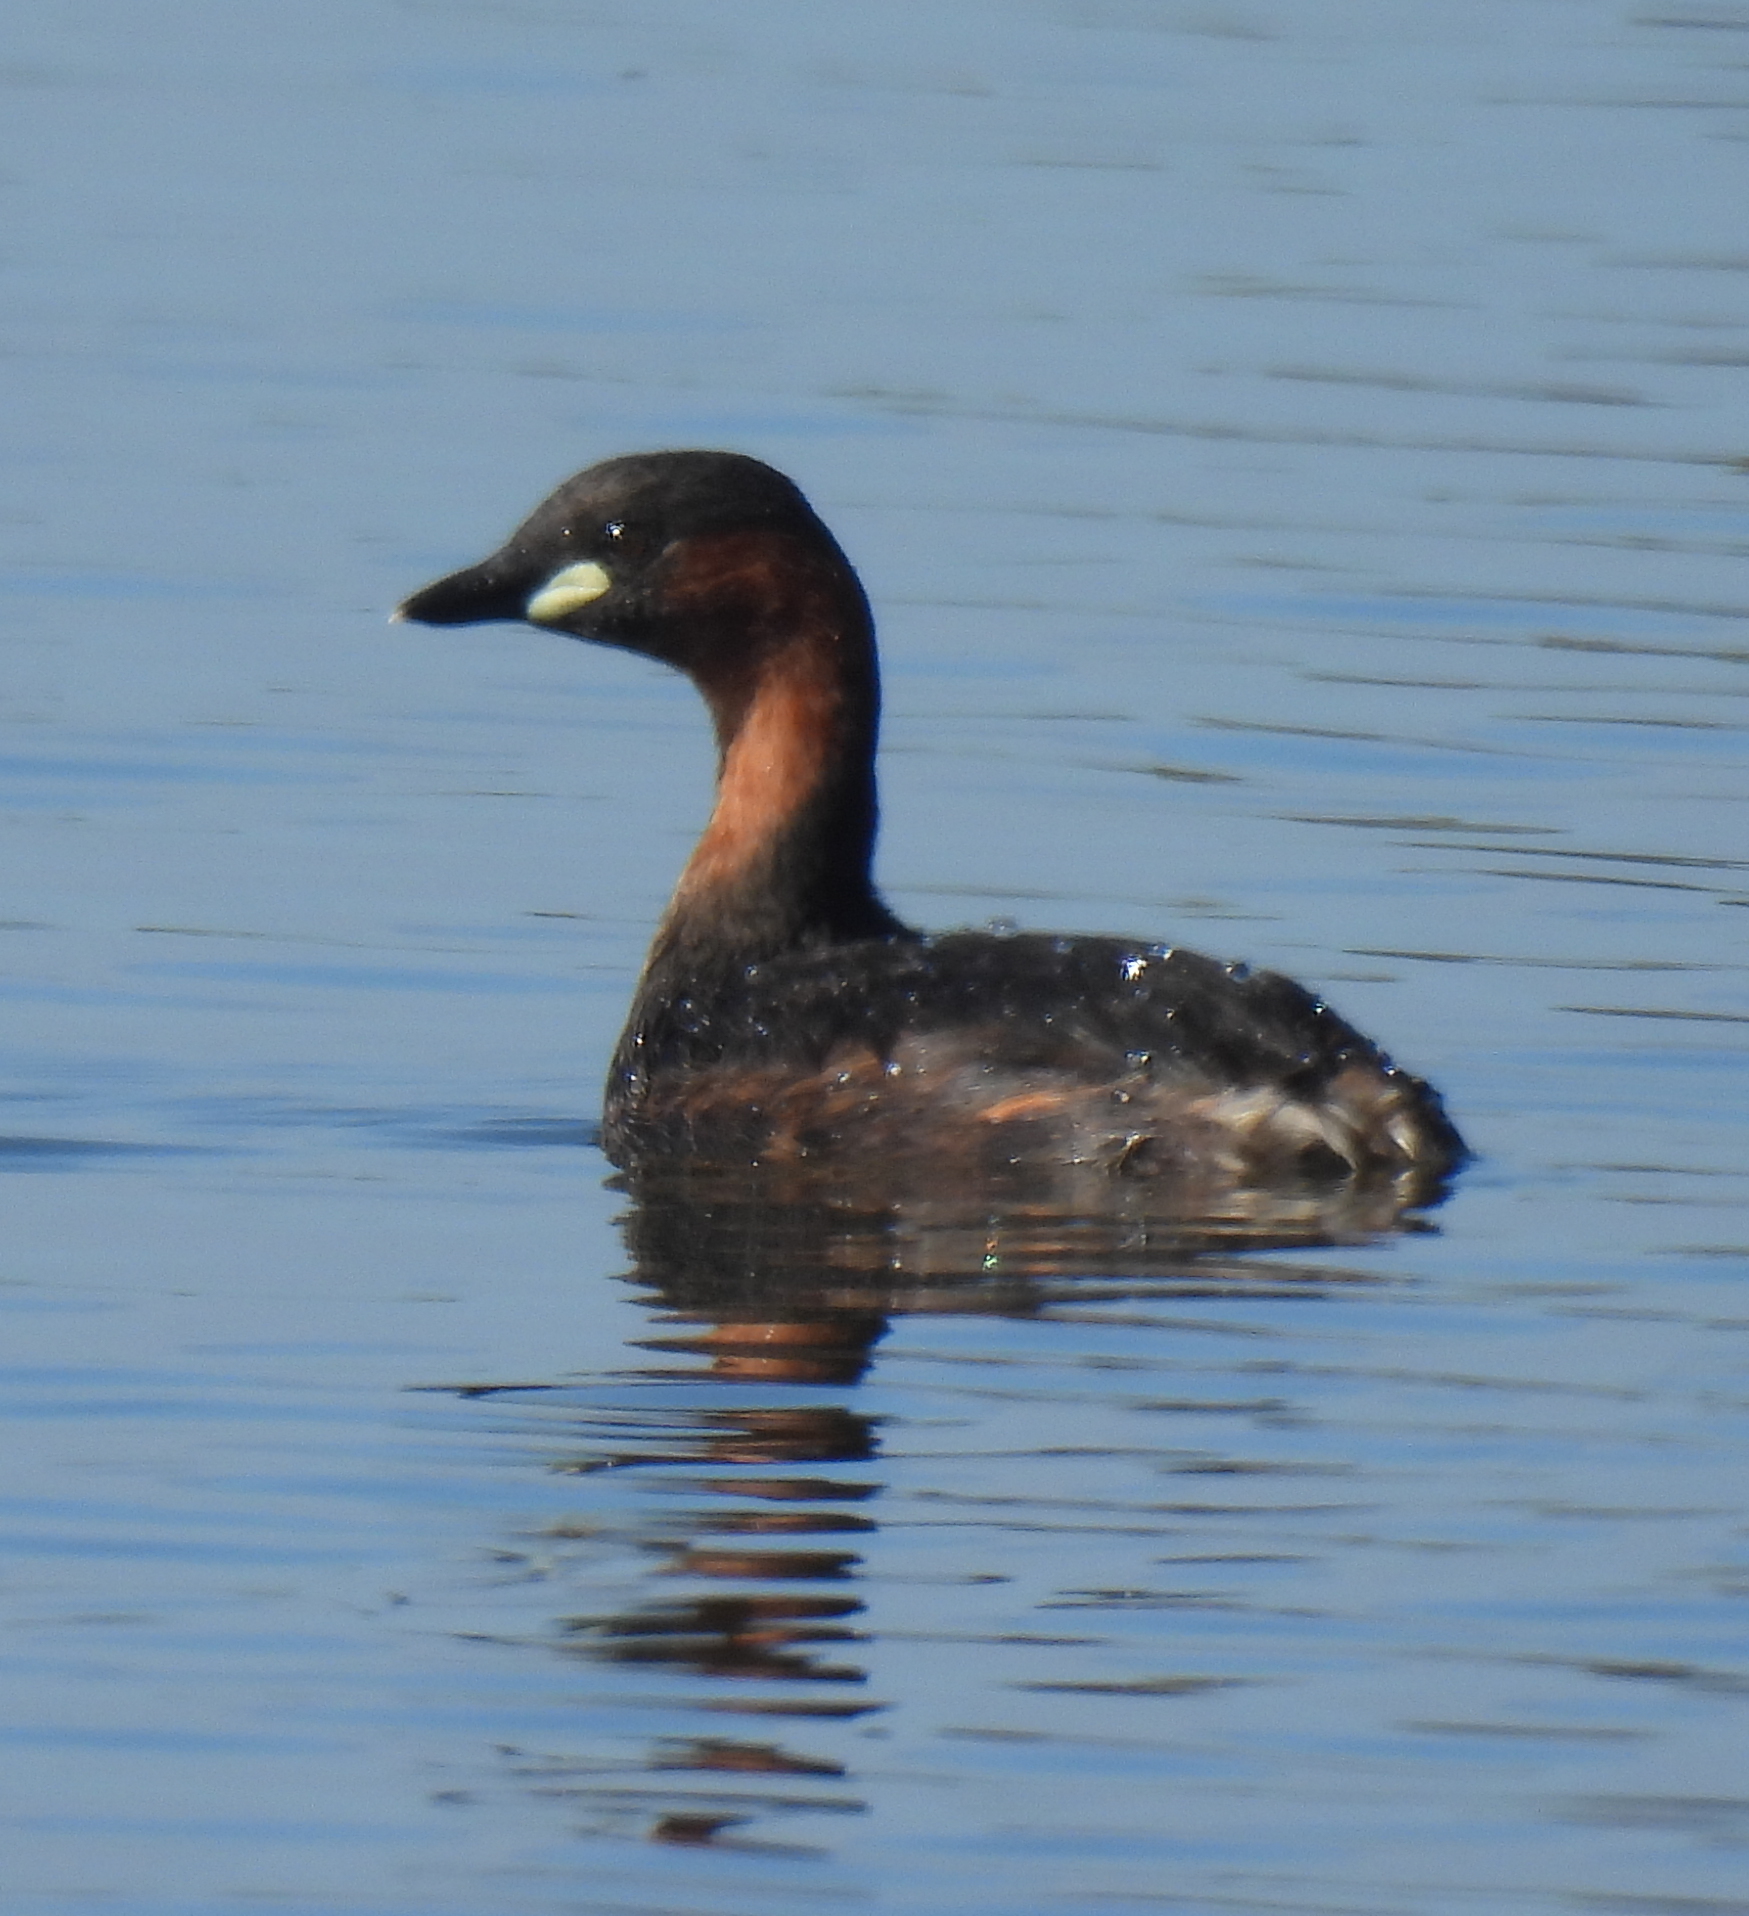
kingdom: Animalia
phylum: Chordata
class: Aves
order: Podicipediformes
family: Podicipedidae
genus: Tachybaptus
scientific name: Tachybaptus ruficollis
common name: Little grebe
